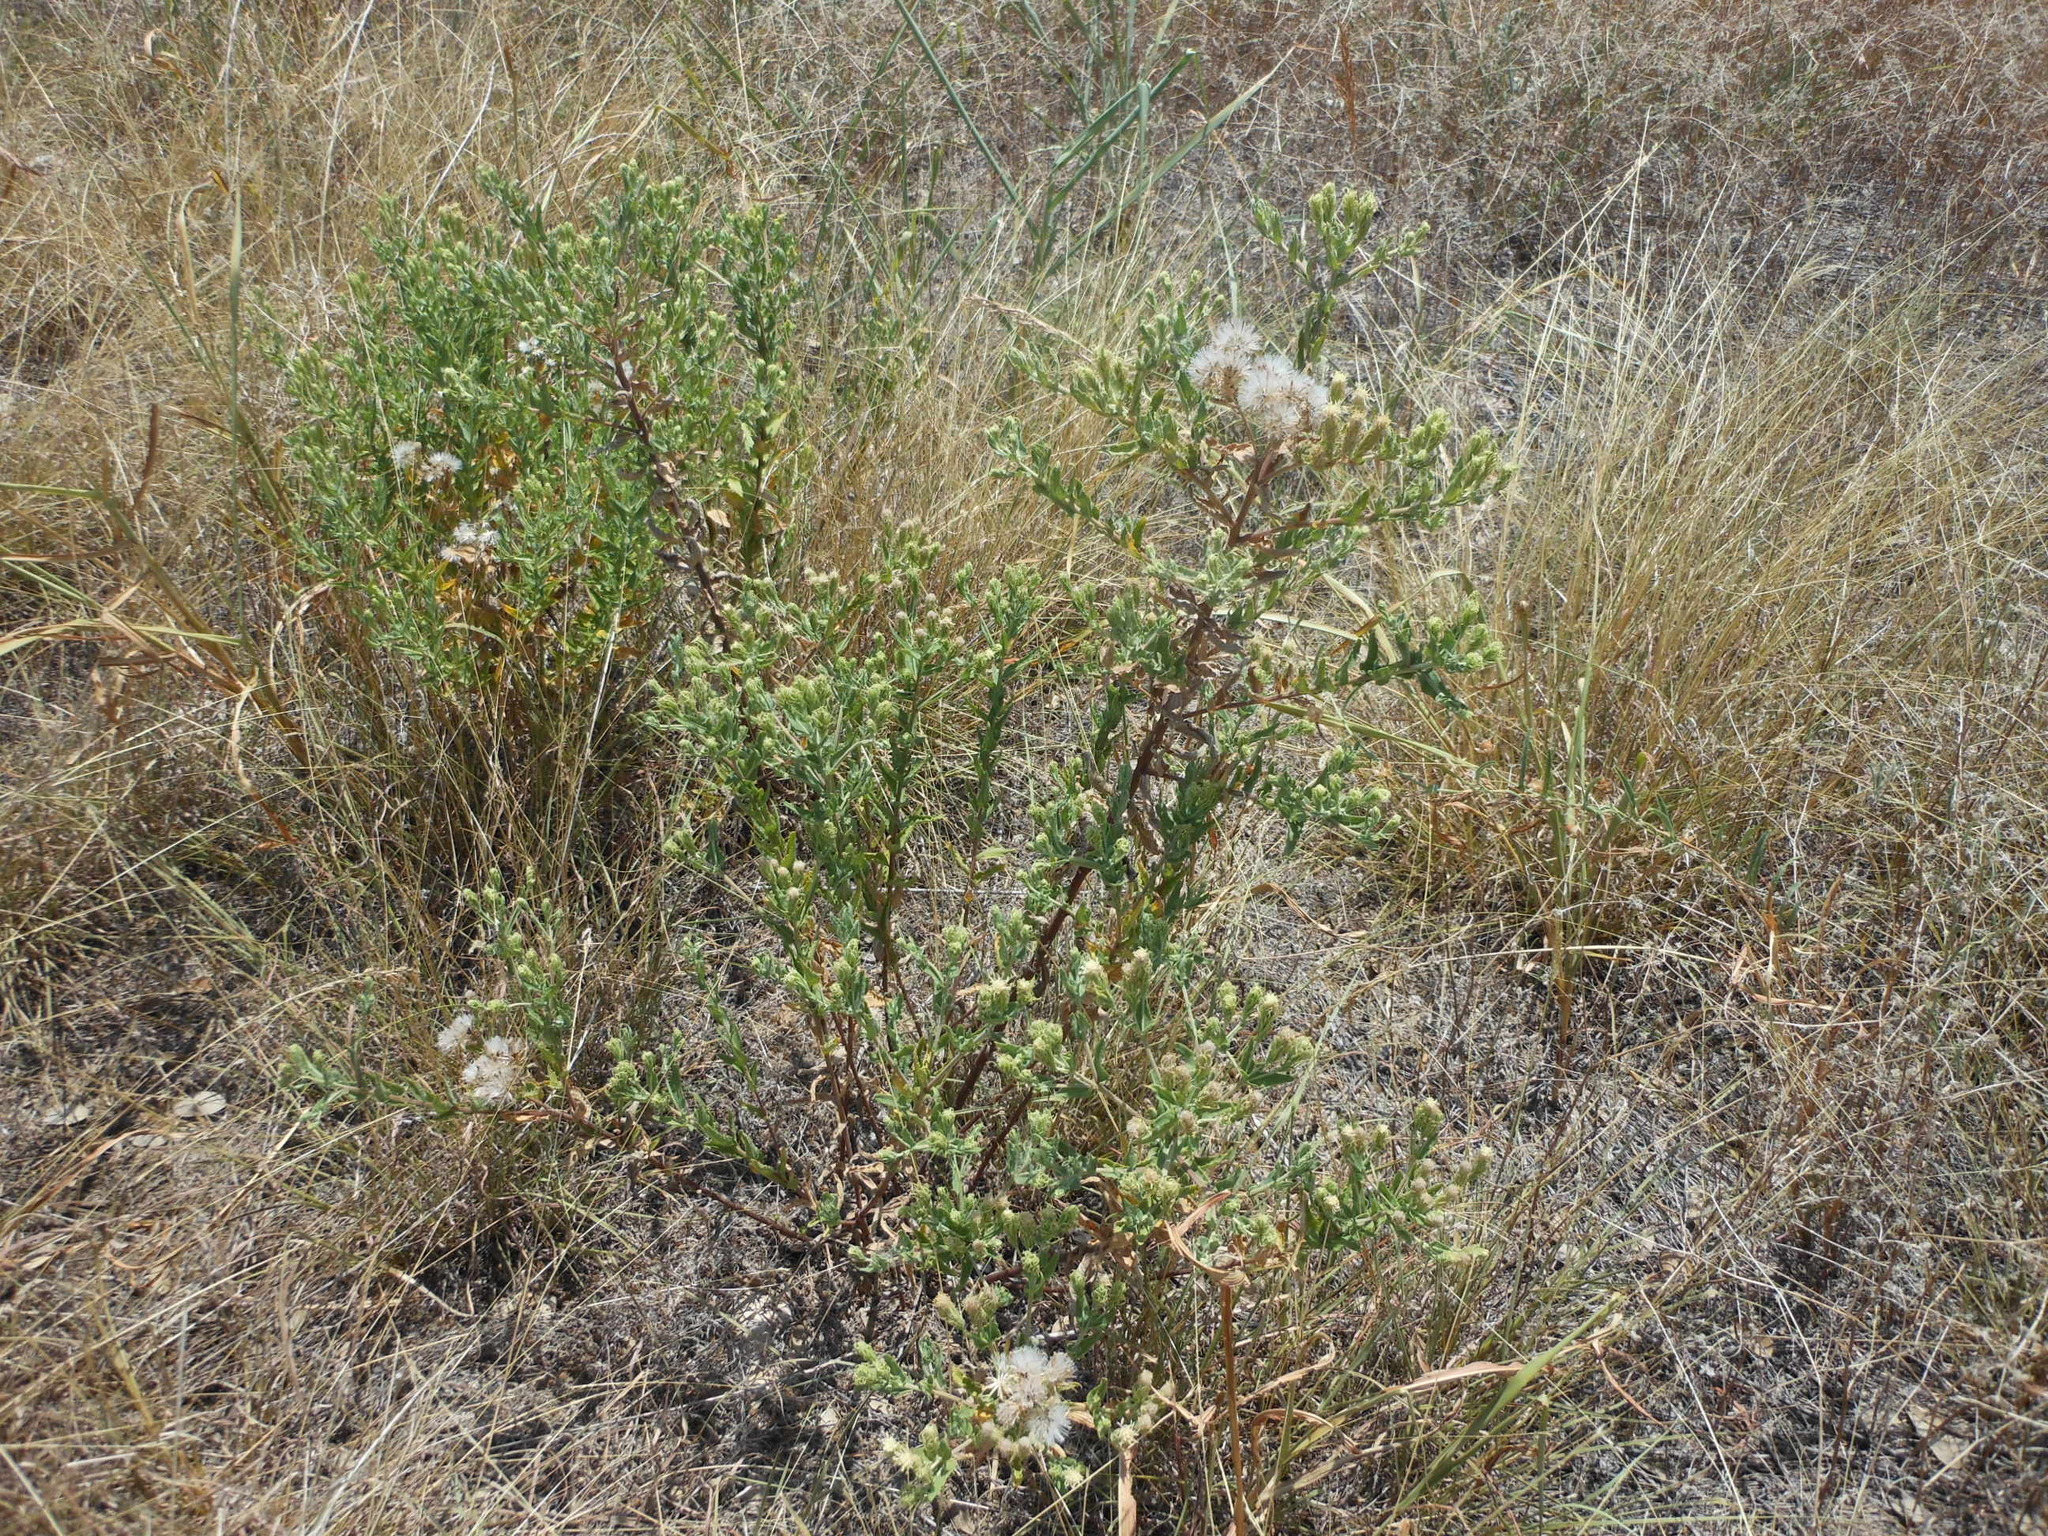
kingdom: Plantae
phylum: Tracheophyta
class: Magnoliopsida
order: Asterales
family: Asteraceae
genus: Brickellia
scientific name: Brickellia eupatorioides
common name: False boneset
